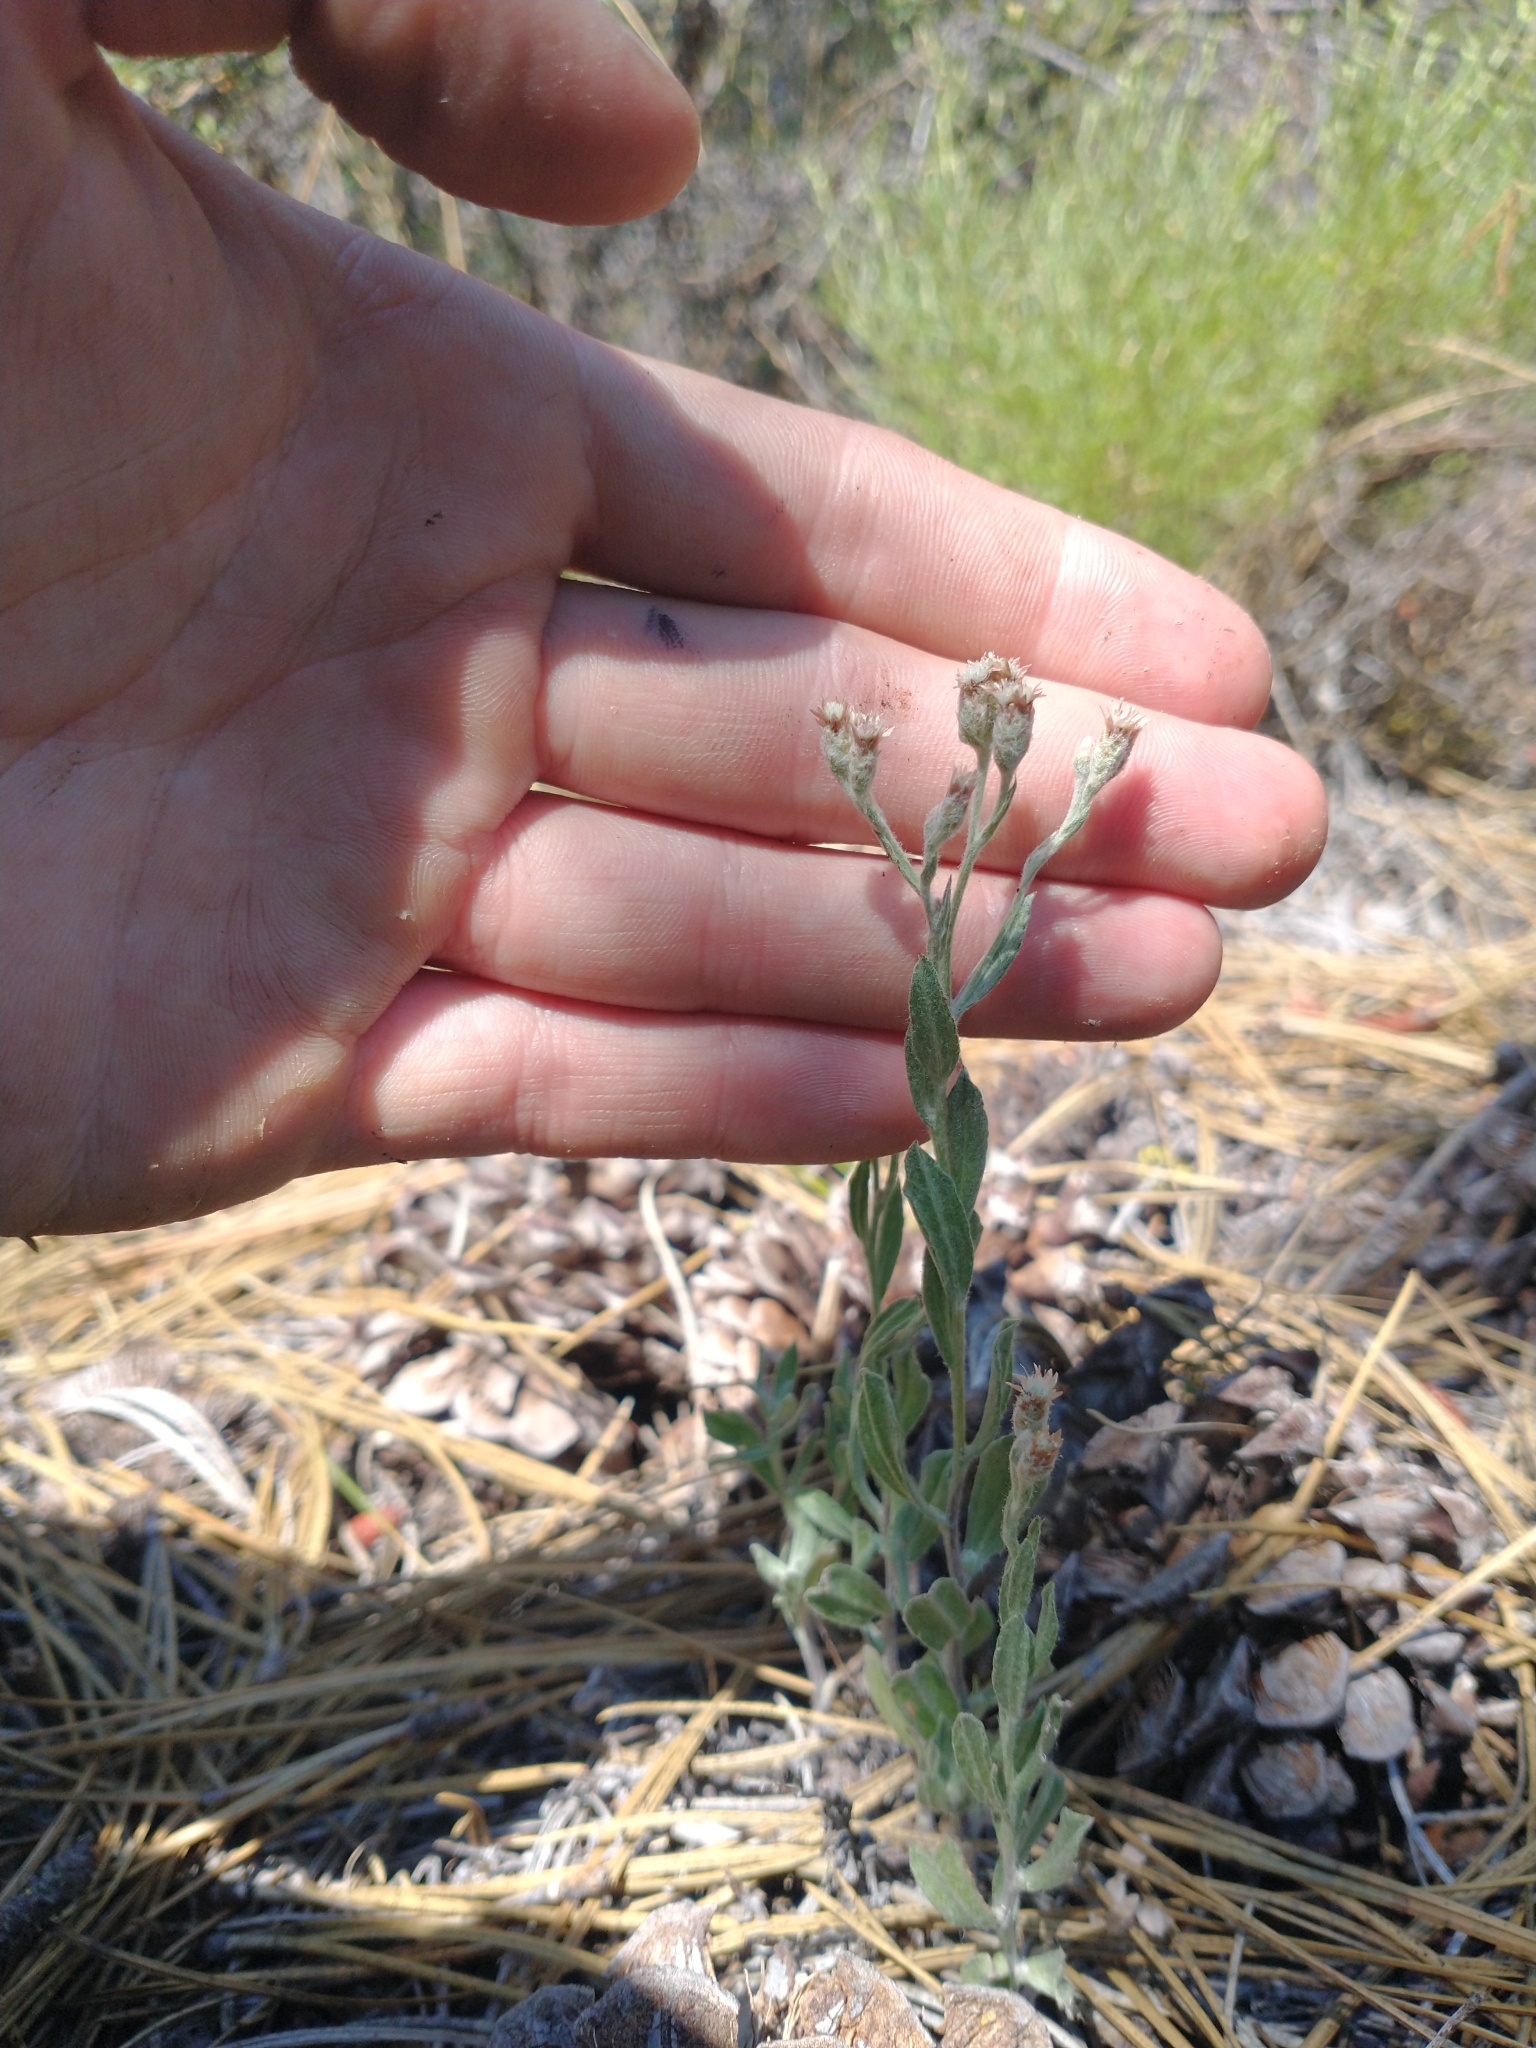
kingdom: Plantae
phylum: Tracheophyta
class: Magnoliopsida
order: Asterales
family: Asteraceae
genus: Antennaria
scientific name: Antennaria geyeri
